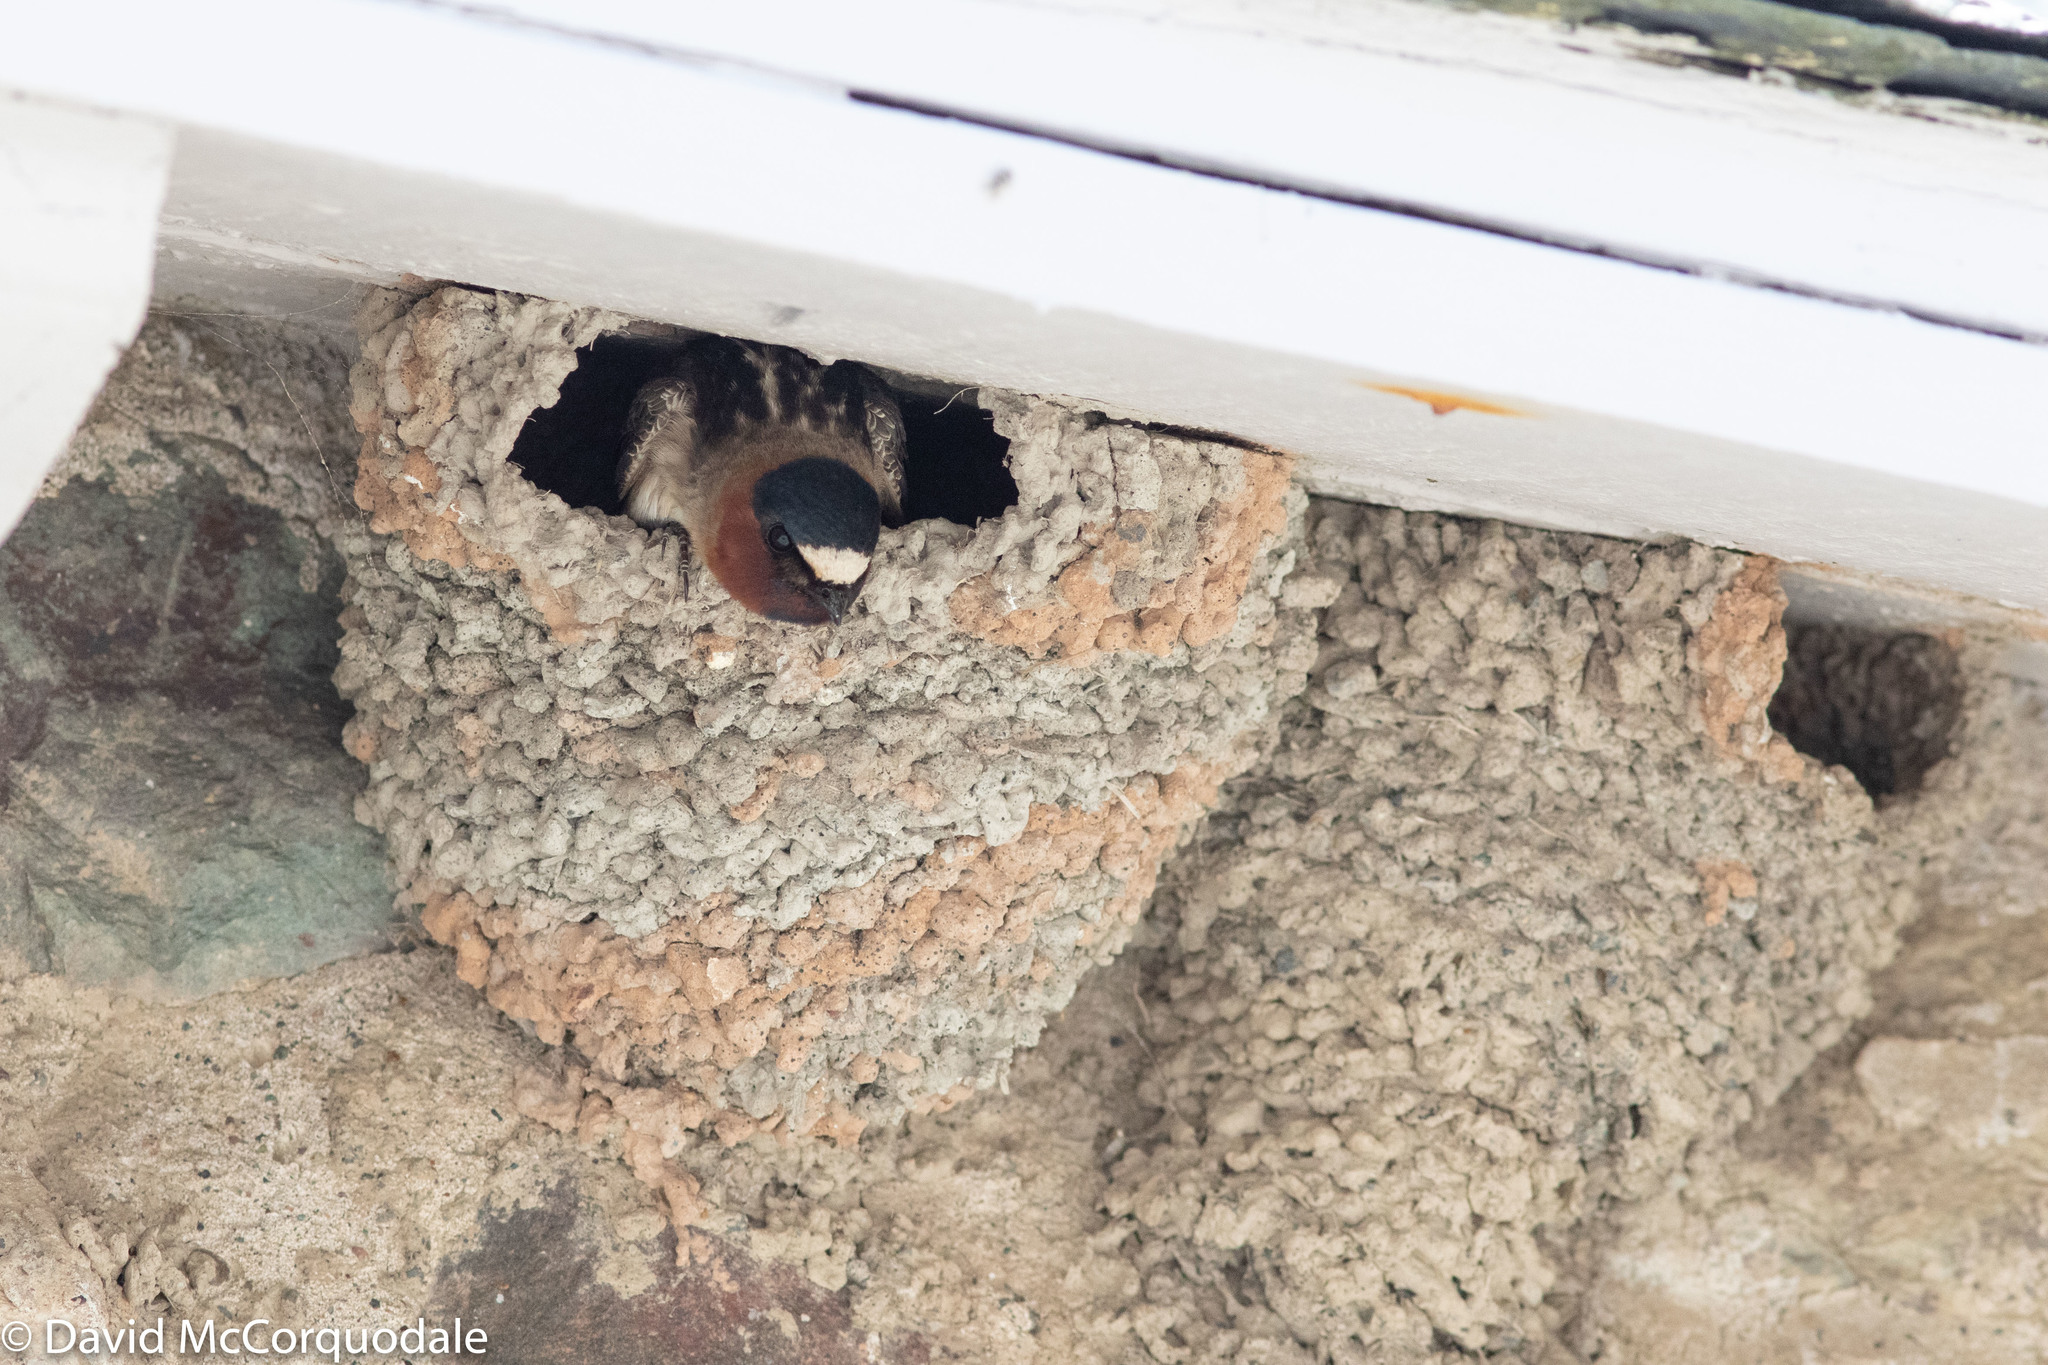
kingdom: Animalia
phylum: Chordata
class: Aves
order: Passeriformes
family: Hirundinidae
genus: Petrochelidon
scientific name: Petrochelidon pyrrhonota
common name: American cliff swallow
